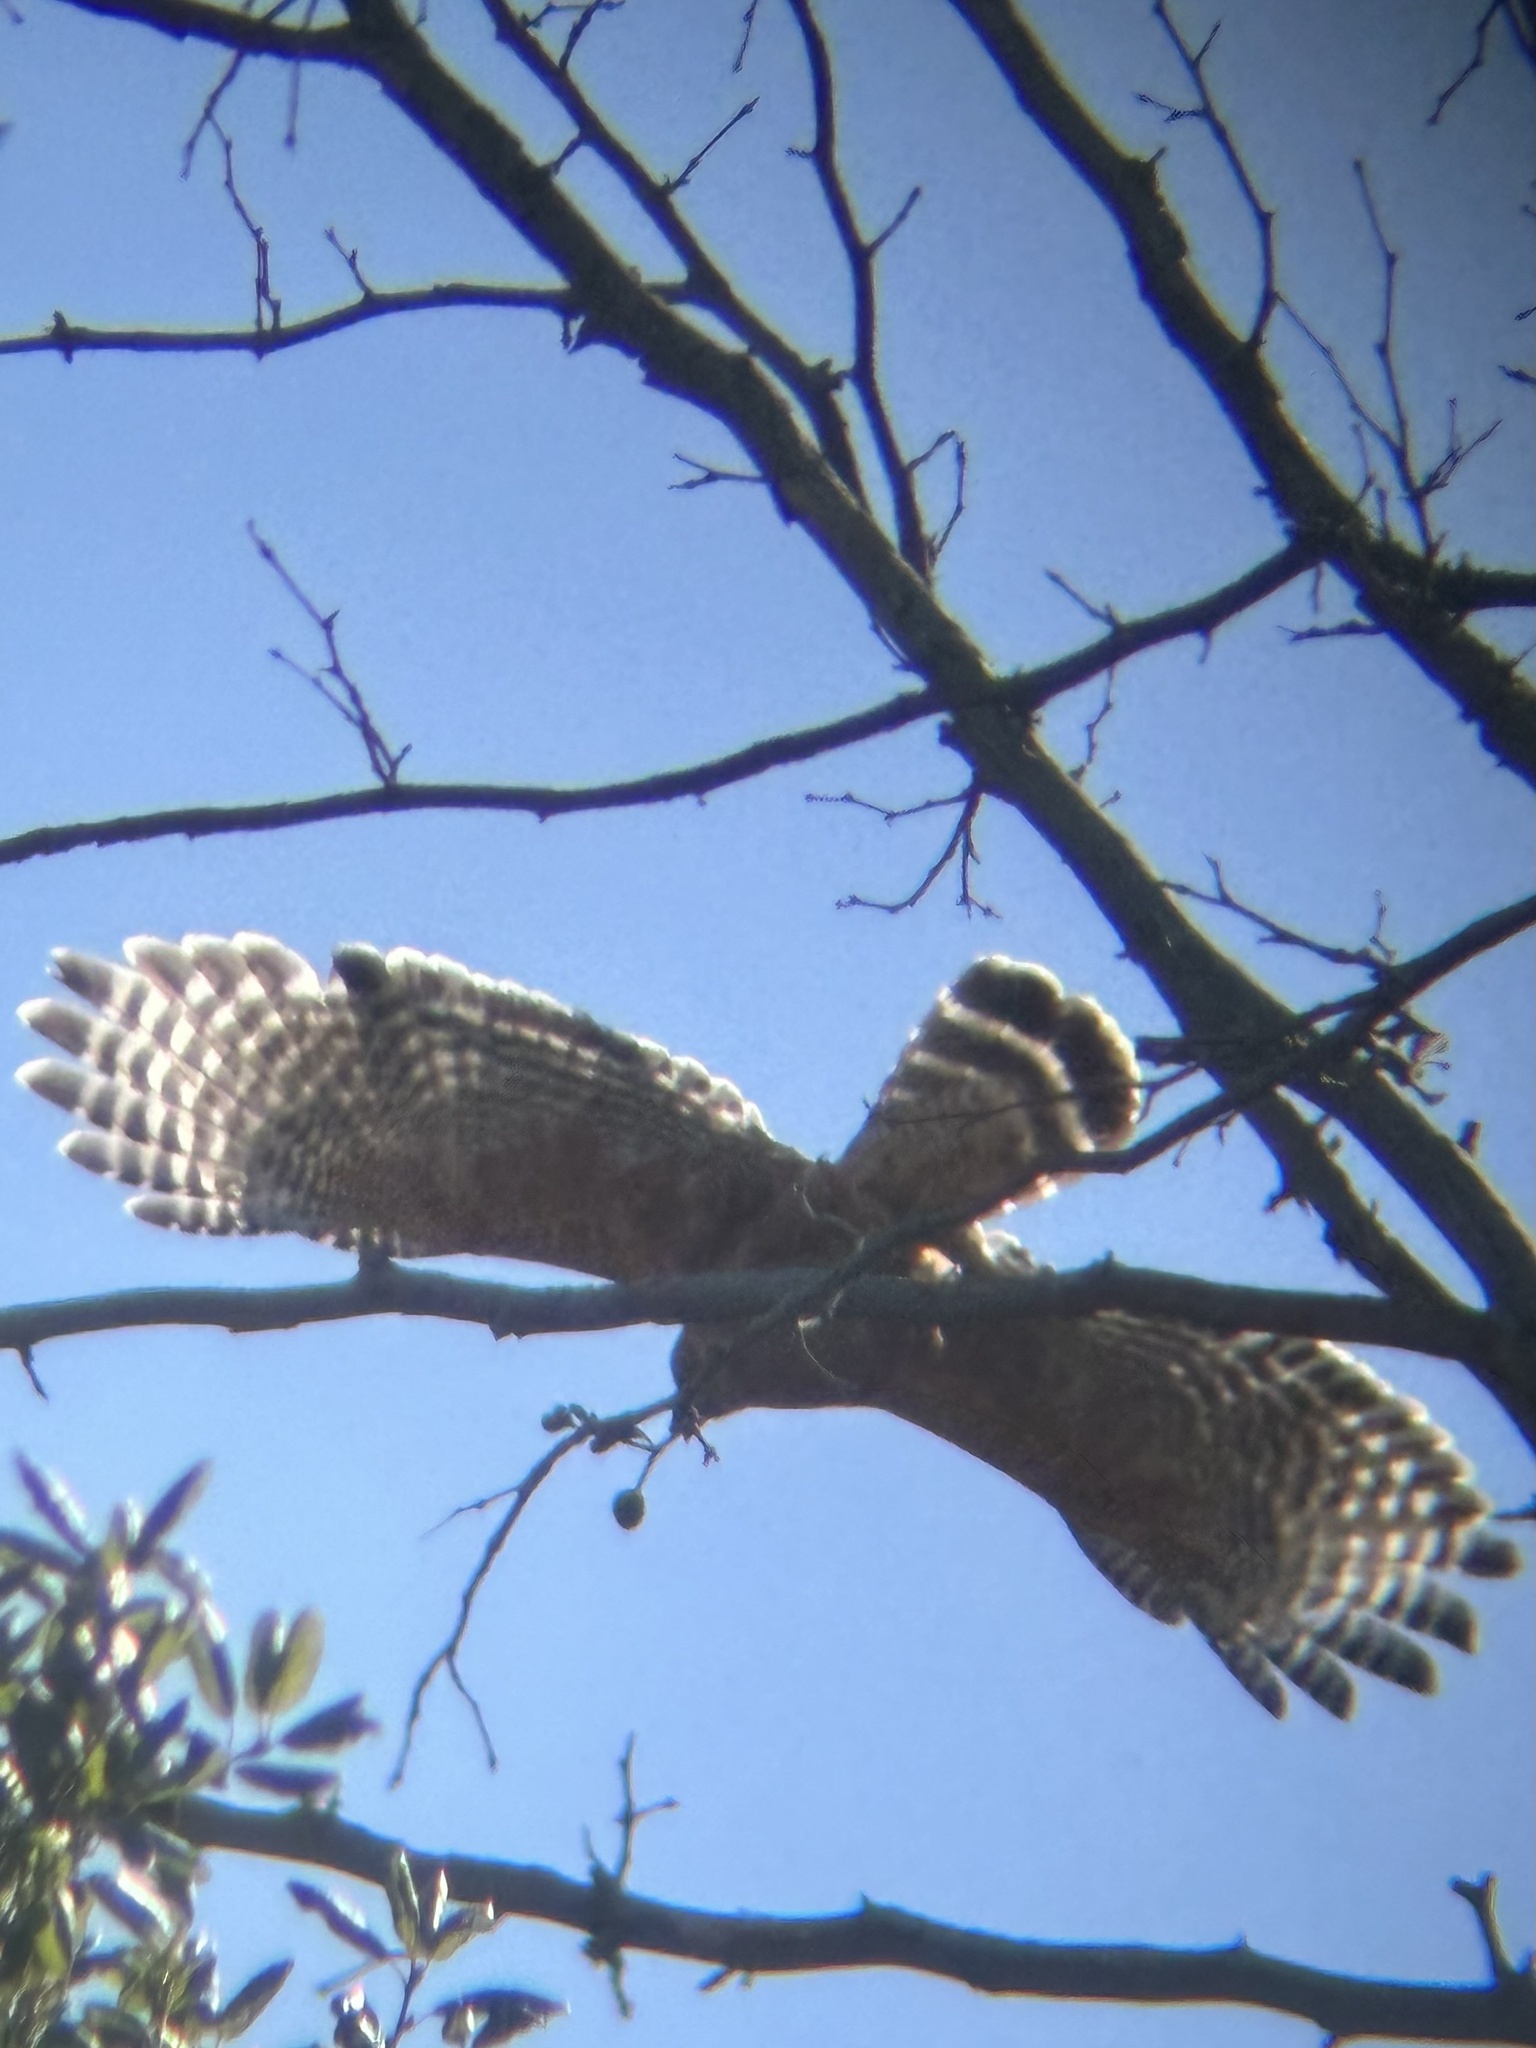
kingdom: Animalia
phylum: Chordata
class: Aves
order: Accipitriformes
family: Accipitridae
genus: Buteo
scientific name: Buteo lineatus
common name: Red-shouldered hawk
